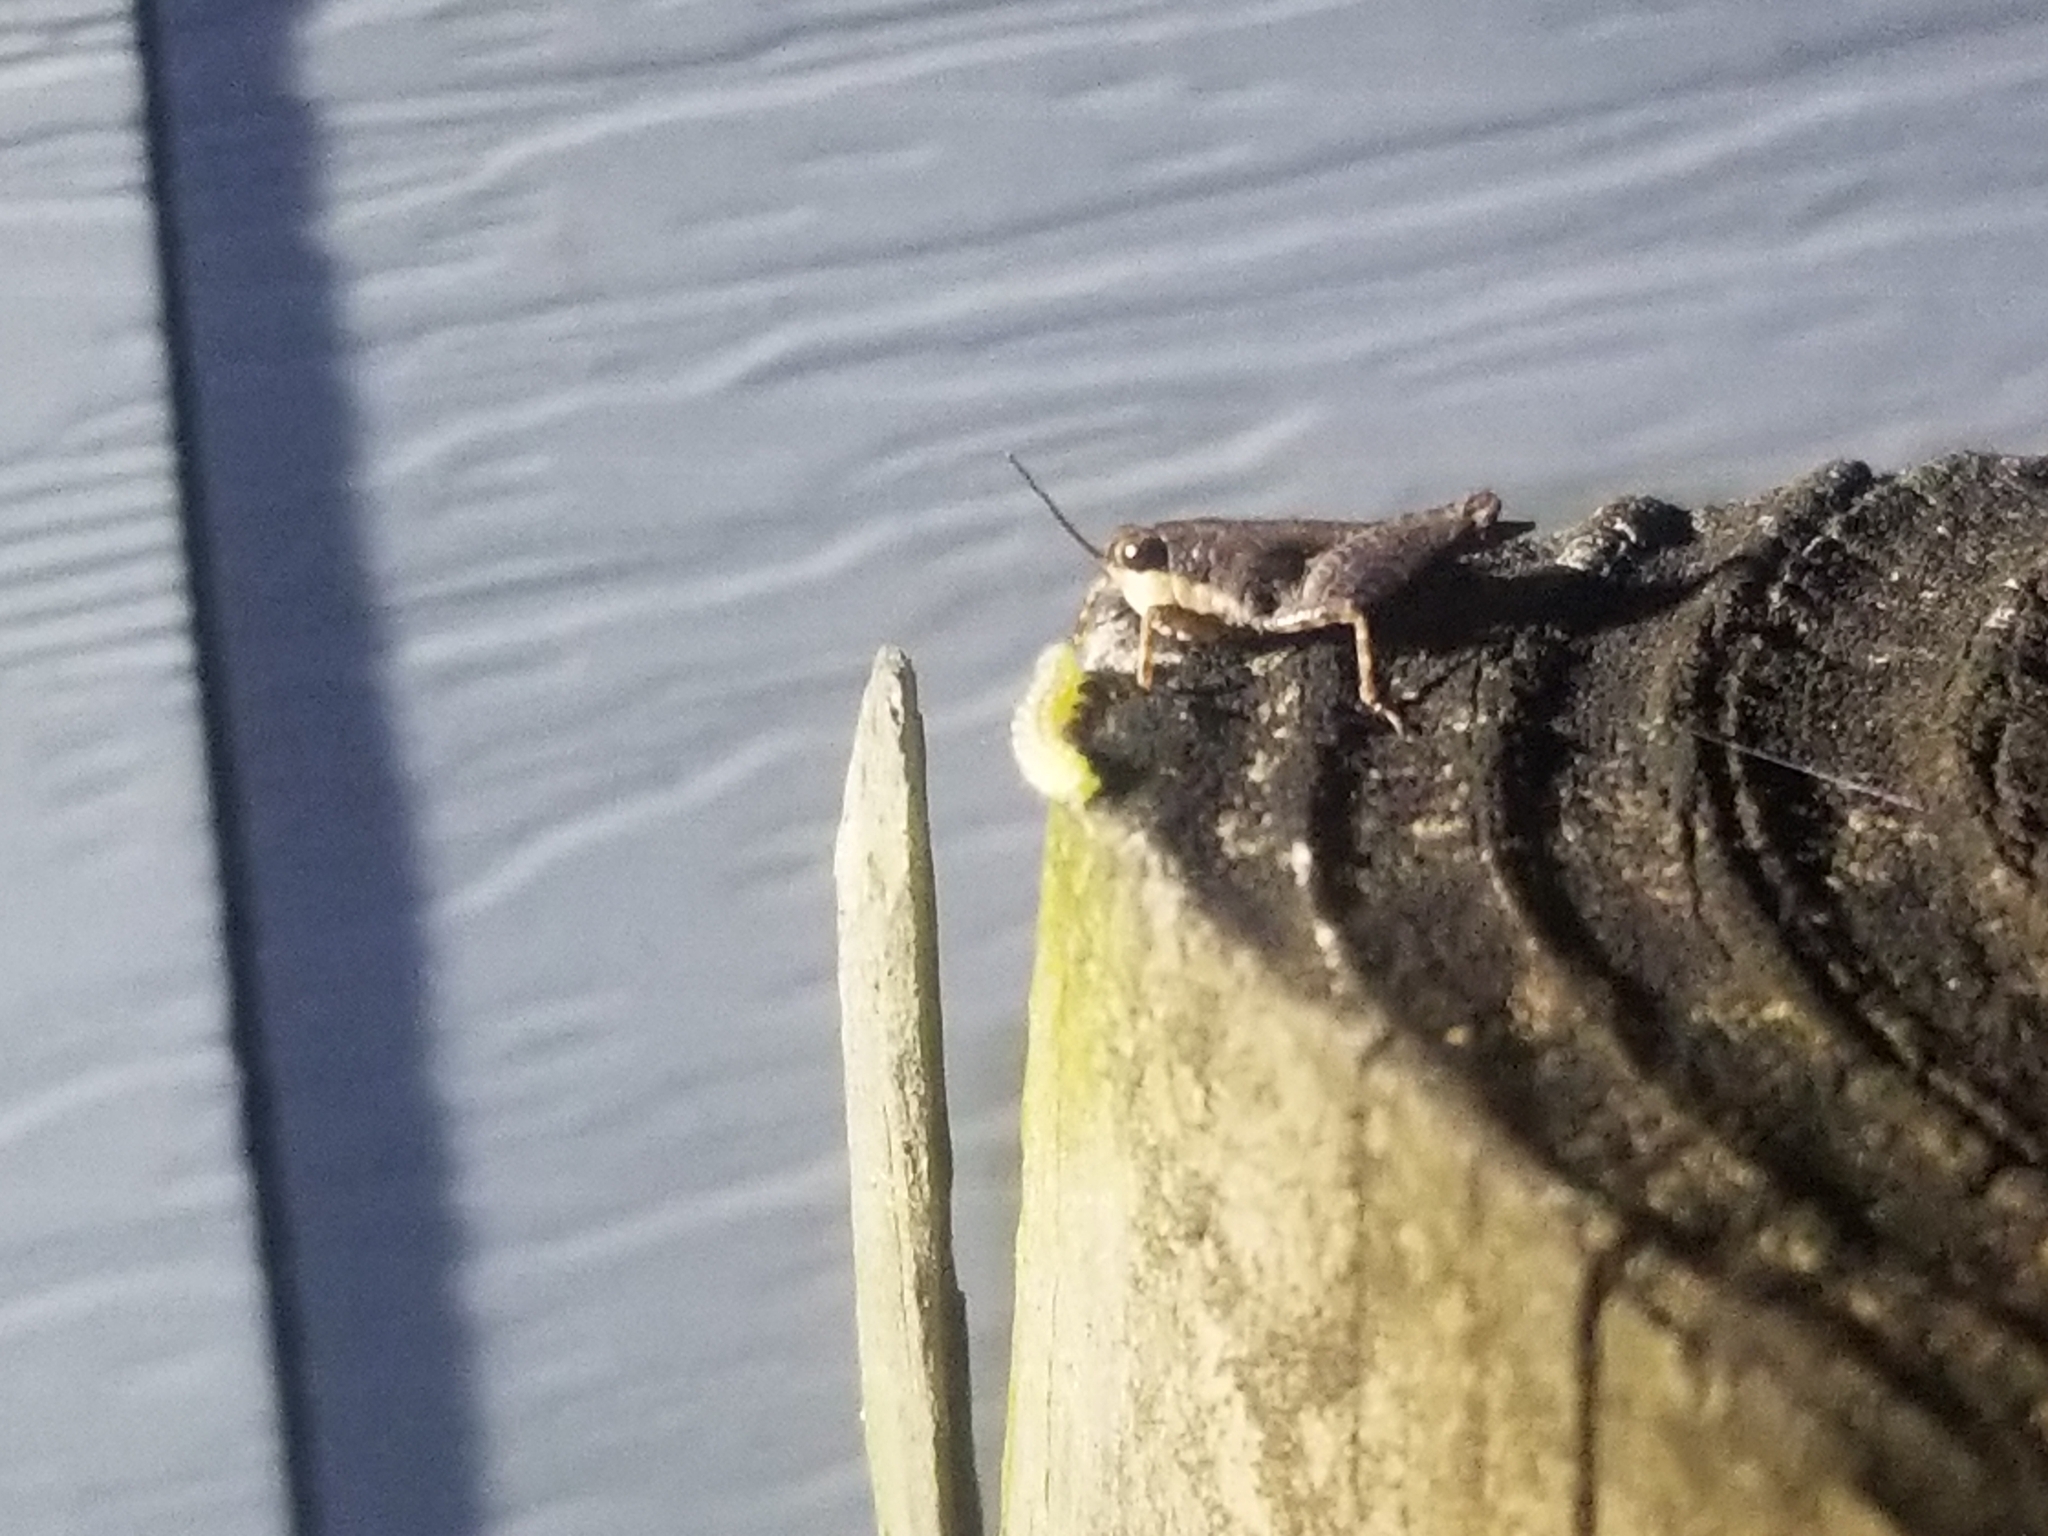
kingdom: Animalia
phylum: Arthropoda
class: Insecta
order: Orthoptera
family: Tetrigidae
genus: Tettigidea
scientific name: Tettigidea laterale
